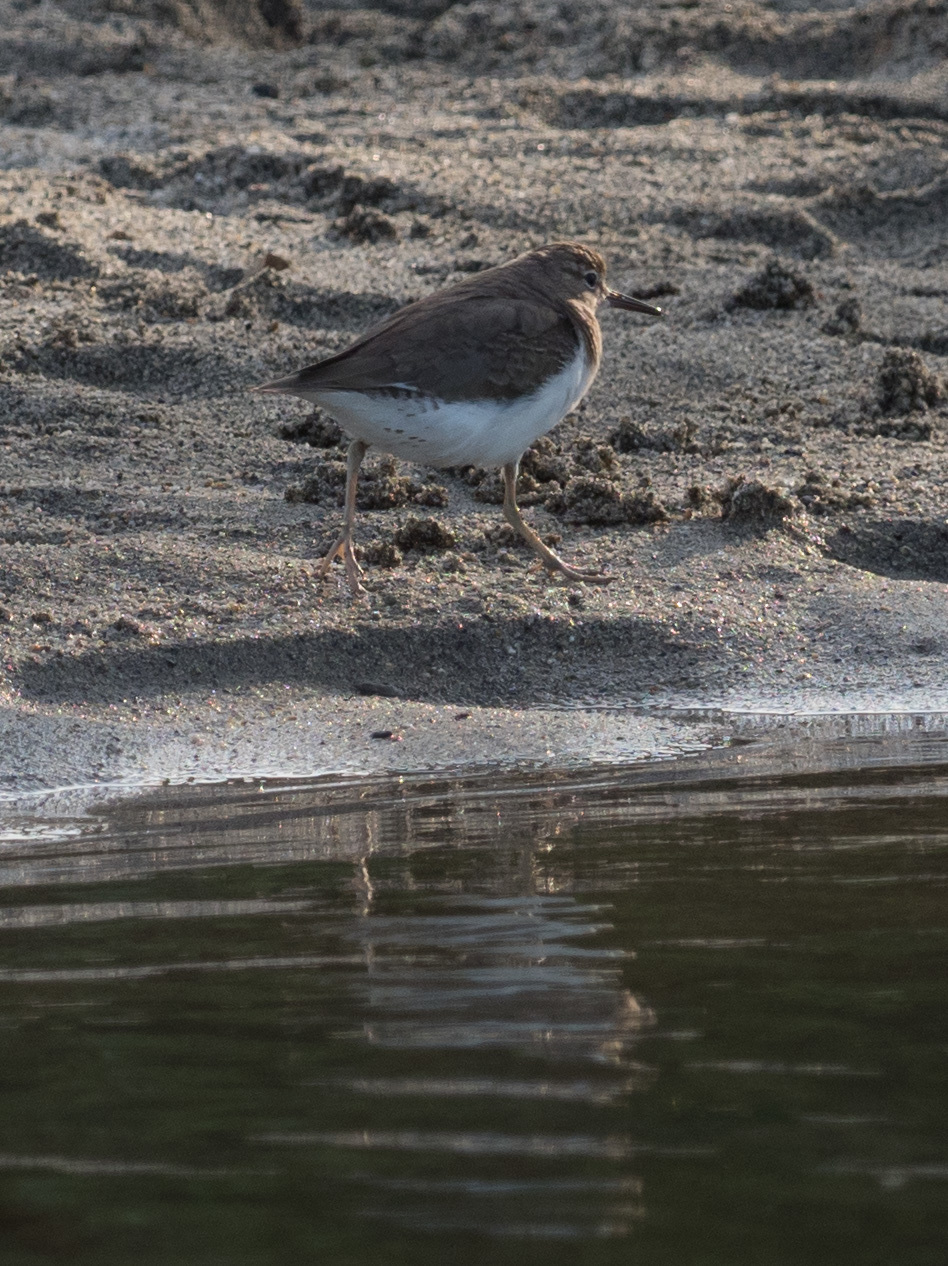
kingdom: Animalia
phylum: Chordata
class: Aves
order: Charadriiformes
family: Scolopacidae
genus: Actitis
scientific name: Actitis macularius
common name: Spotted sandpiper
